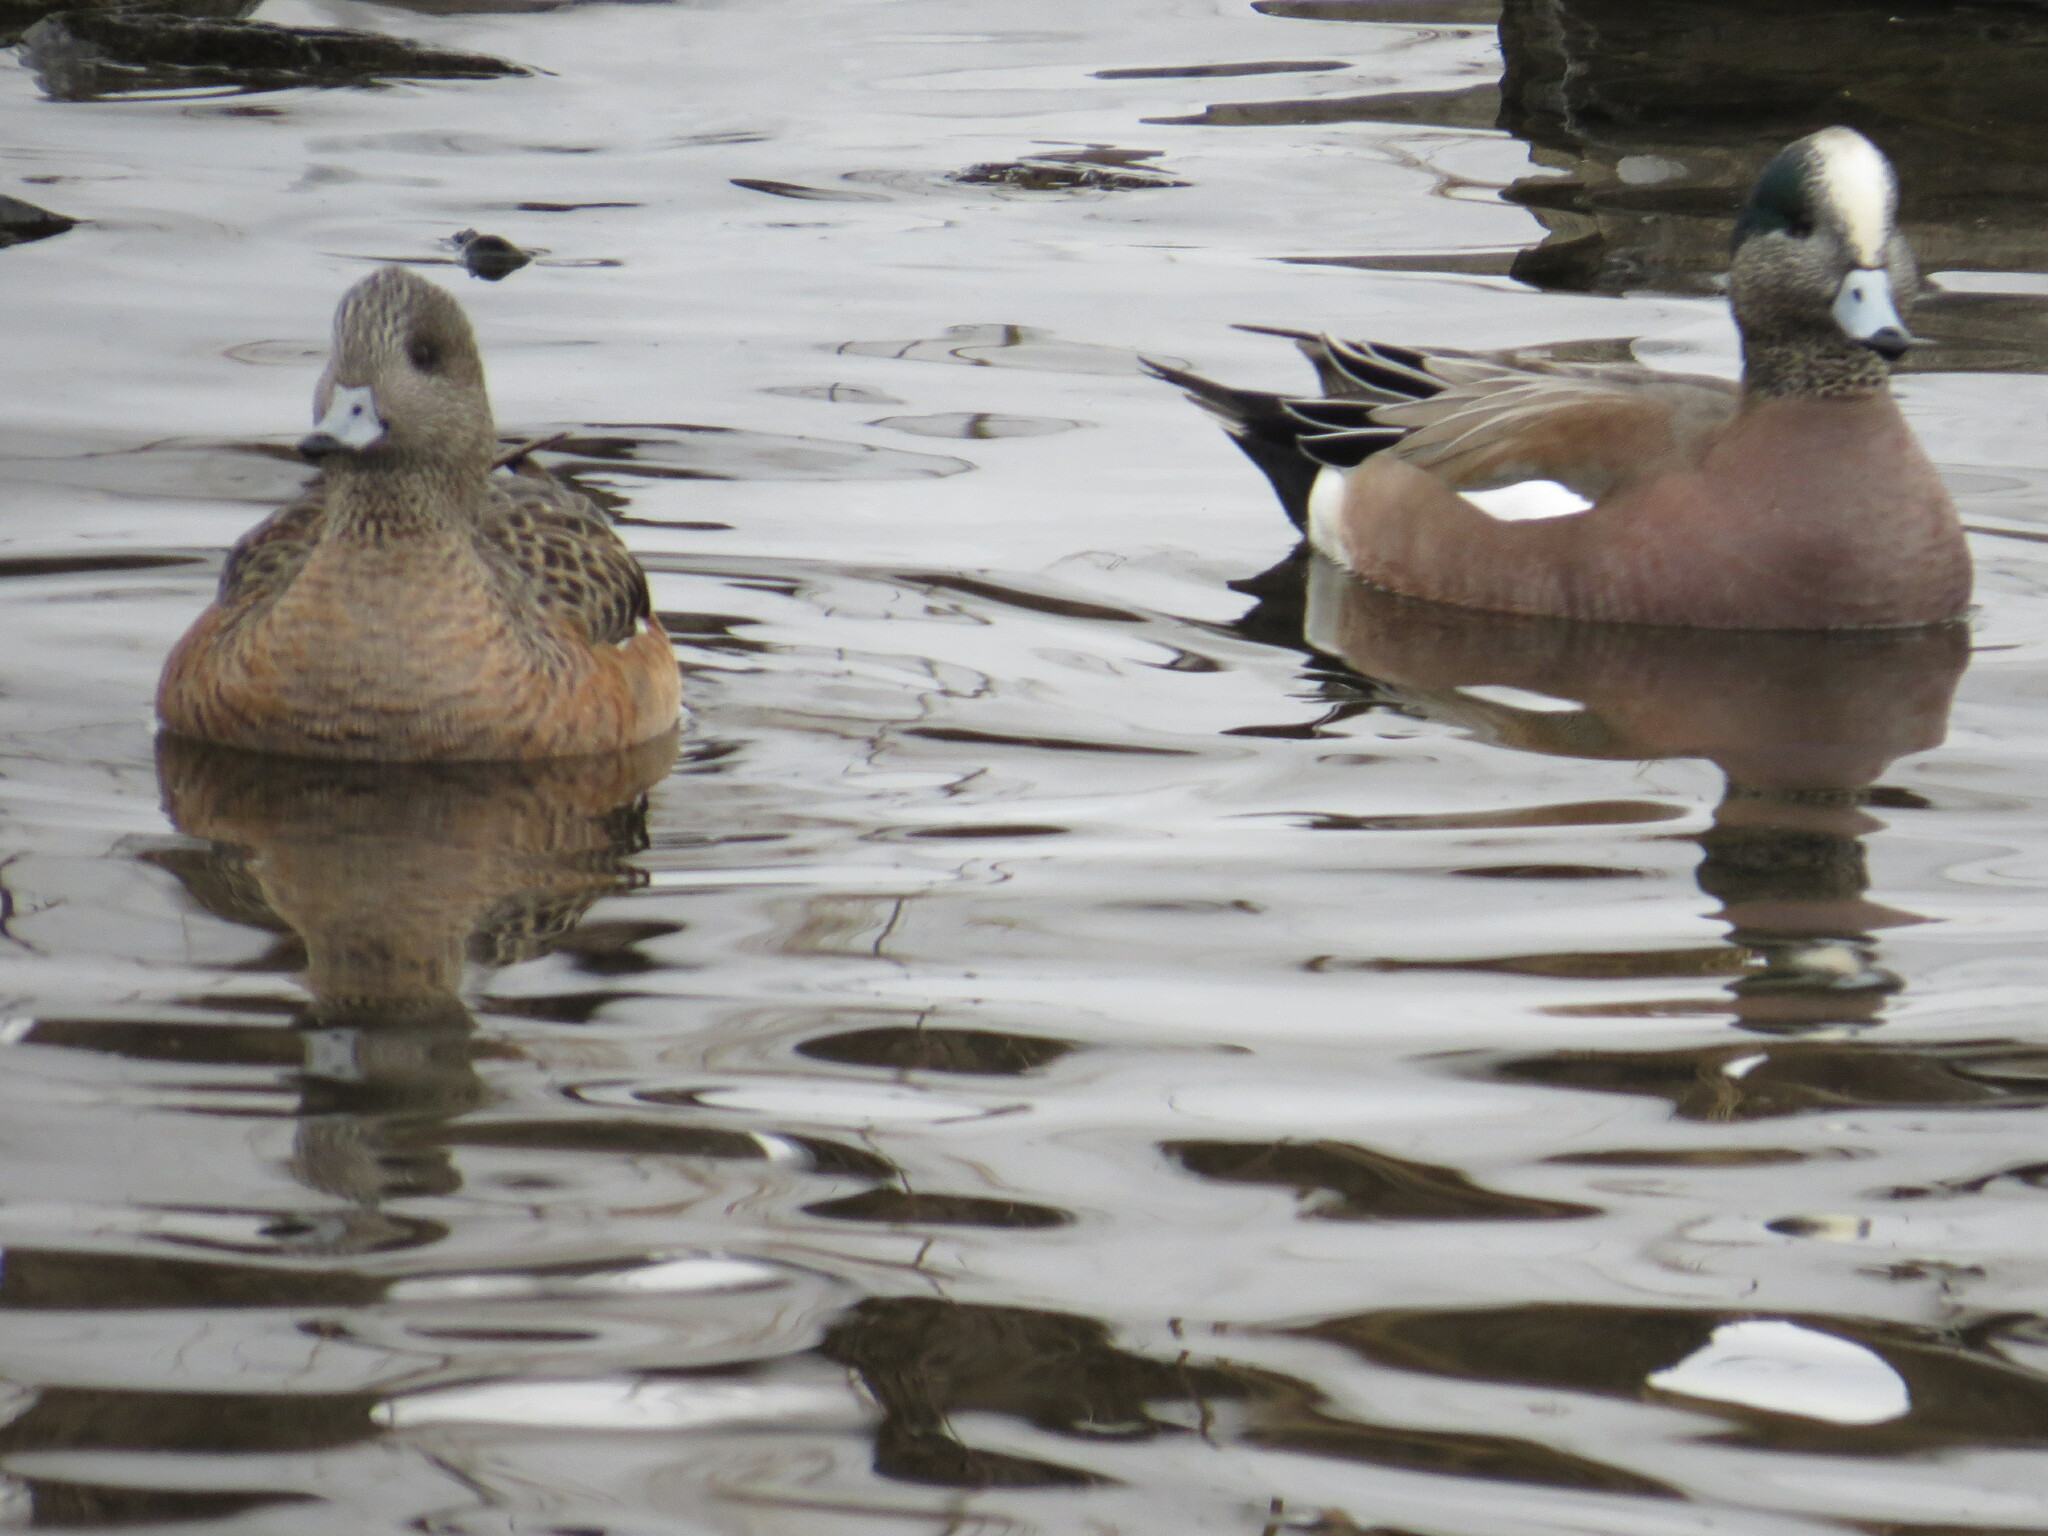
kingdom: Animalia
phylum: Chordata
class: Aves
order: Anseriformes
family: Anatidae
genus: Mareca
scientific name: Mareca americana
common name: American wigeon
